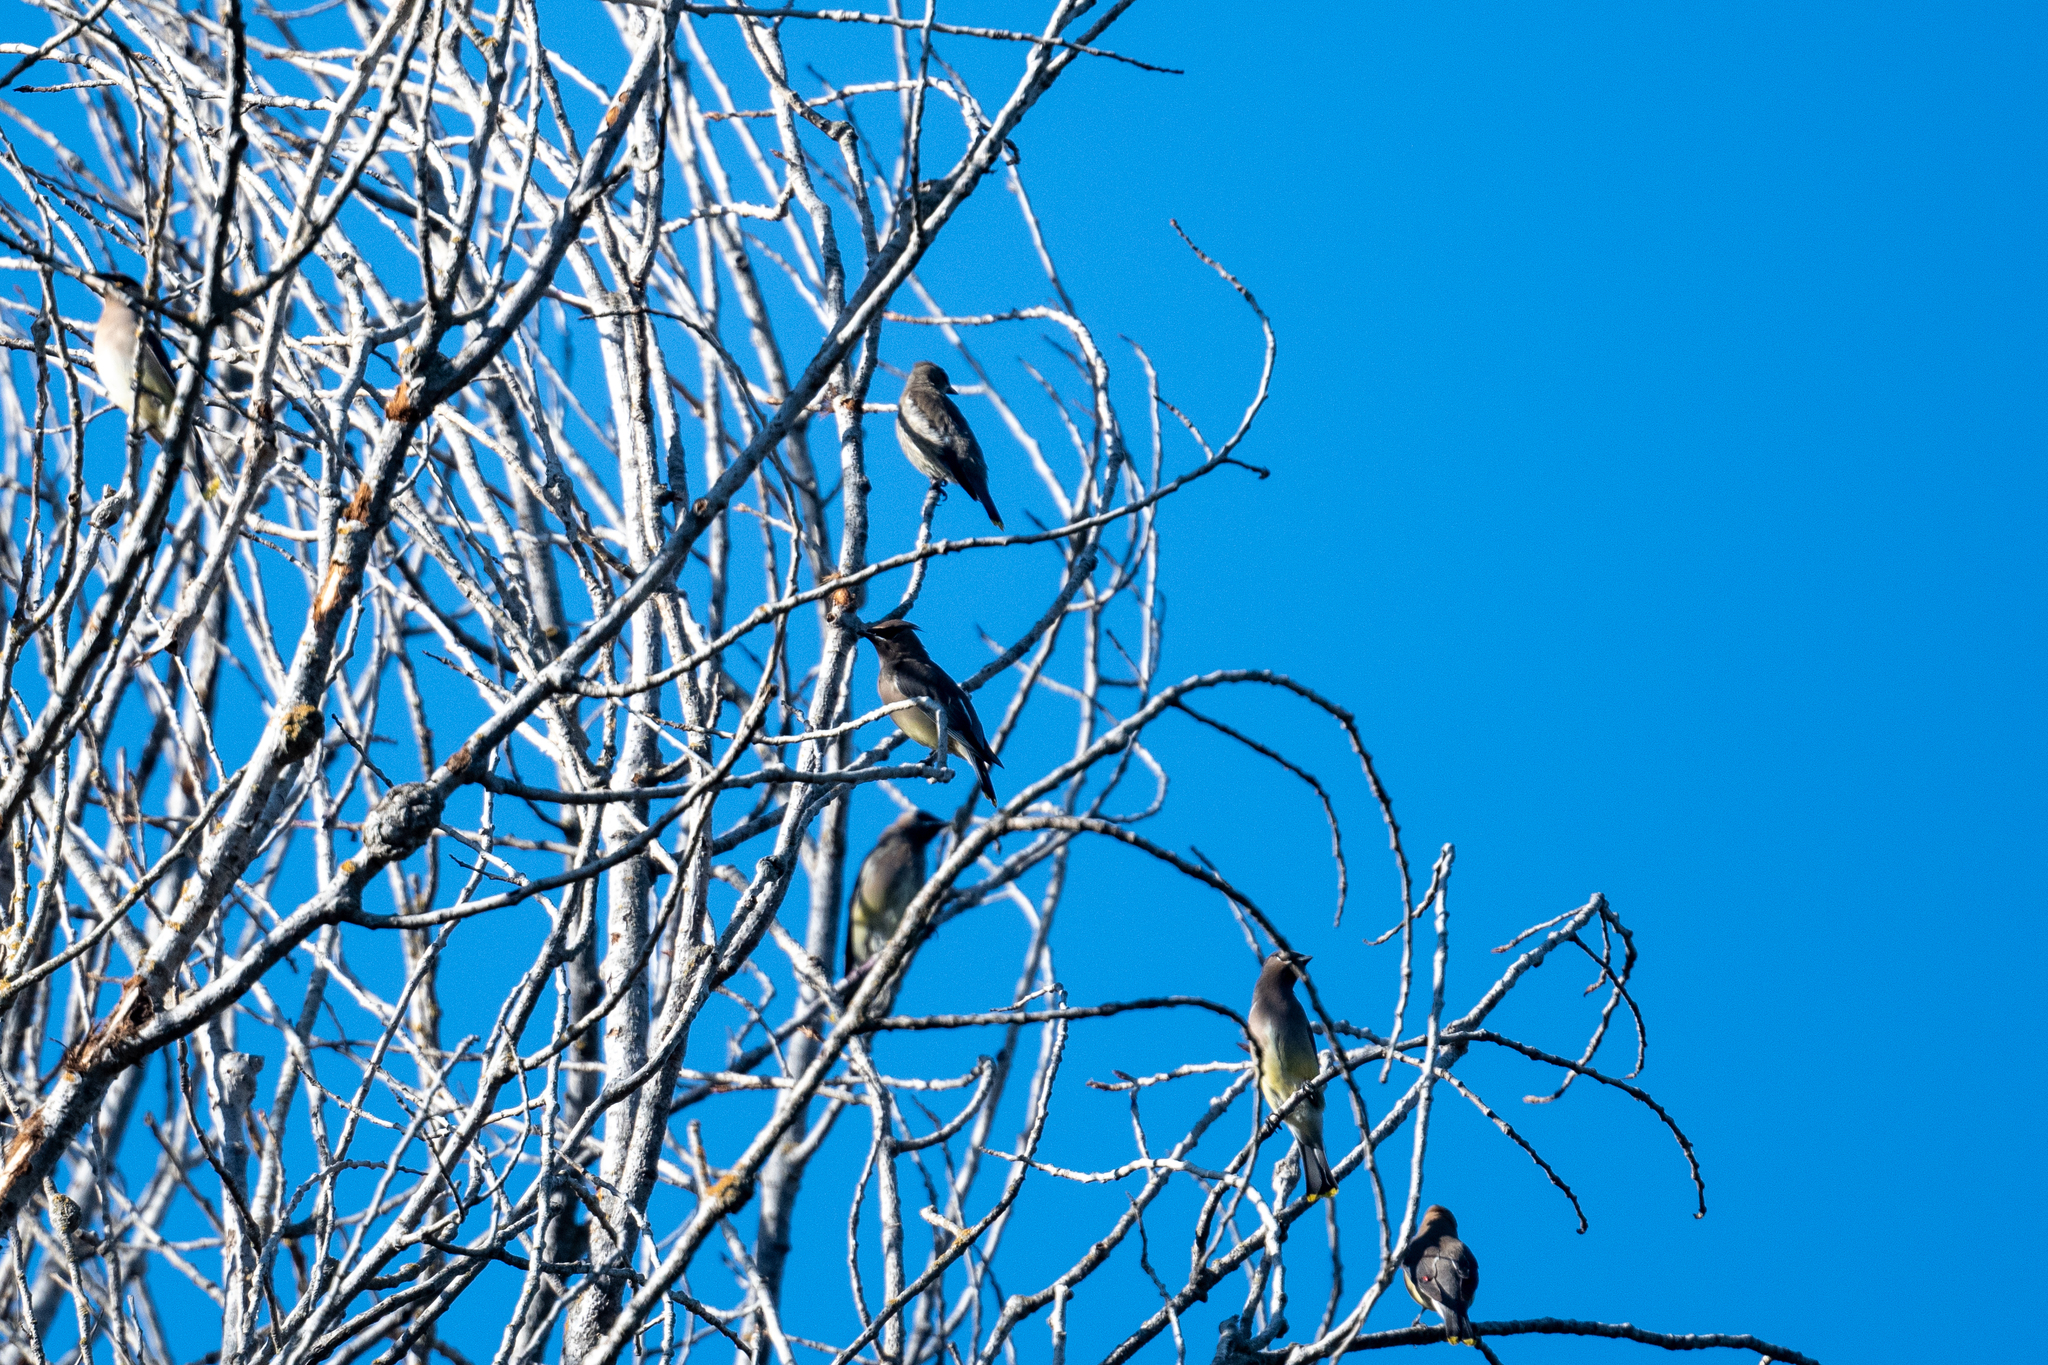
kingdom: Animalia
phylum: Chordata
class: Aves
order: Passeriformes
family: Bombycillidae
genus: Bombycilla
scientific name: Bombycilla cedrorum
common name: Cedar waxwing
